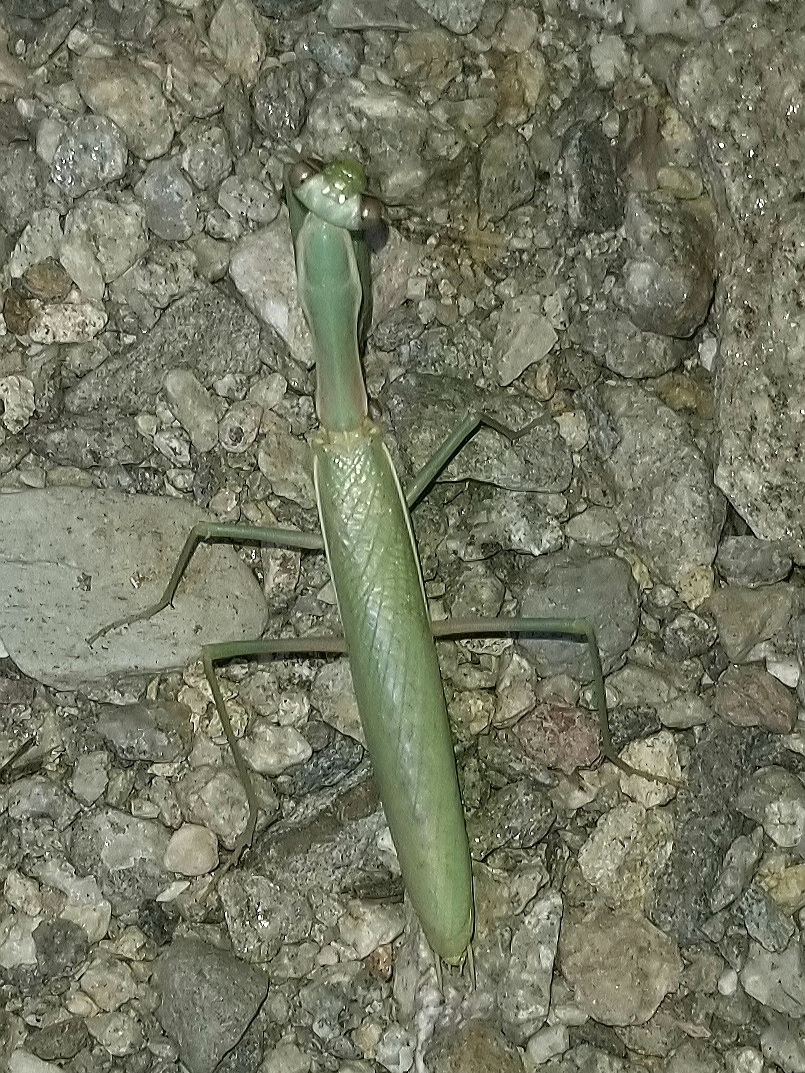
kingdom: Animalia
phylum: Arthropoda
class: Insecta
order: Mantodea
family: Eremiaphilidae
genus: Iris
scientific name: Iris oratoria
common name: Mediterranean mantis
